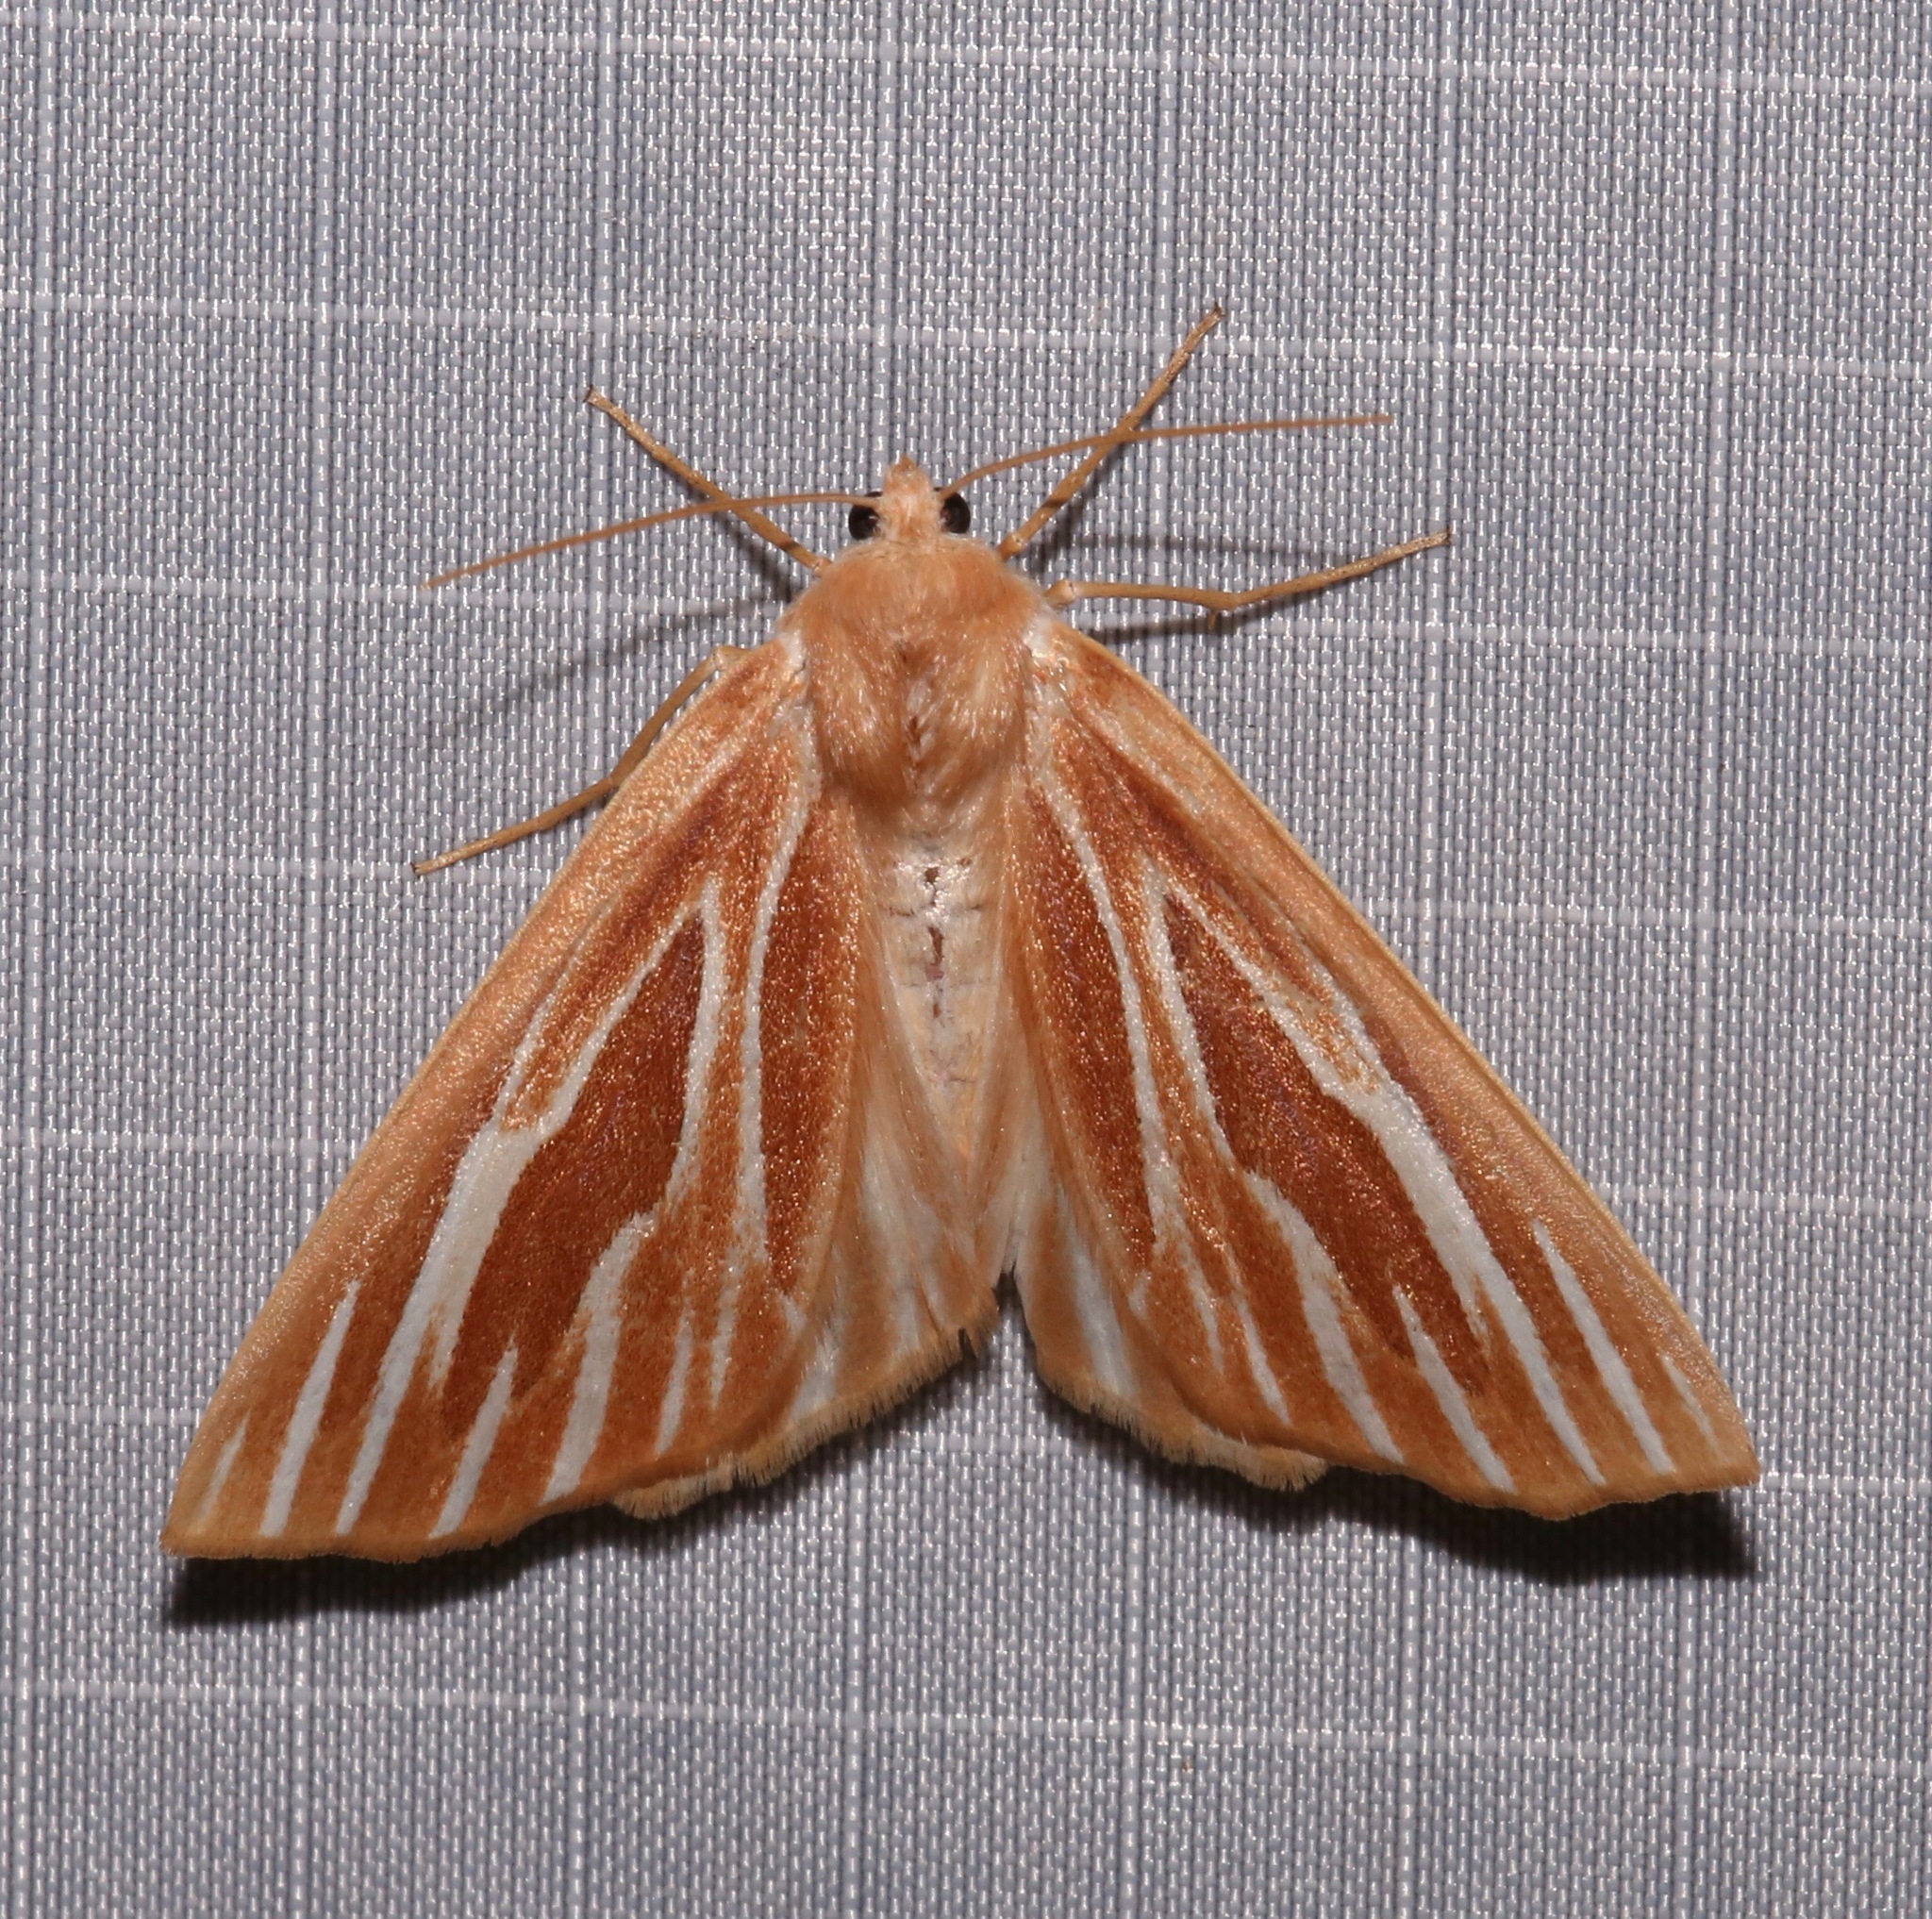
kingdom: Animalia
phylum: Arthropoda
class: Insecta
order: Lepidoptera
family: Geometridae
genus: Sabulodes
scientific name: Sabulodes niveostriata
